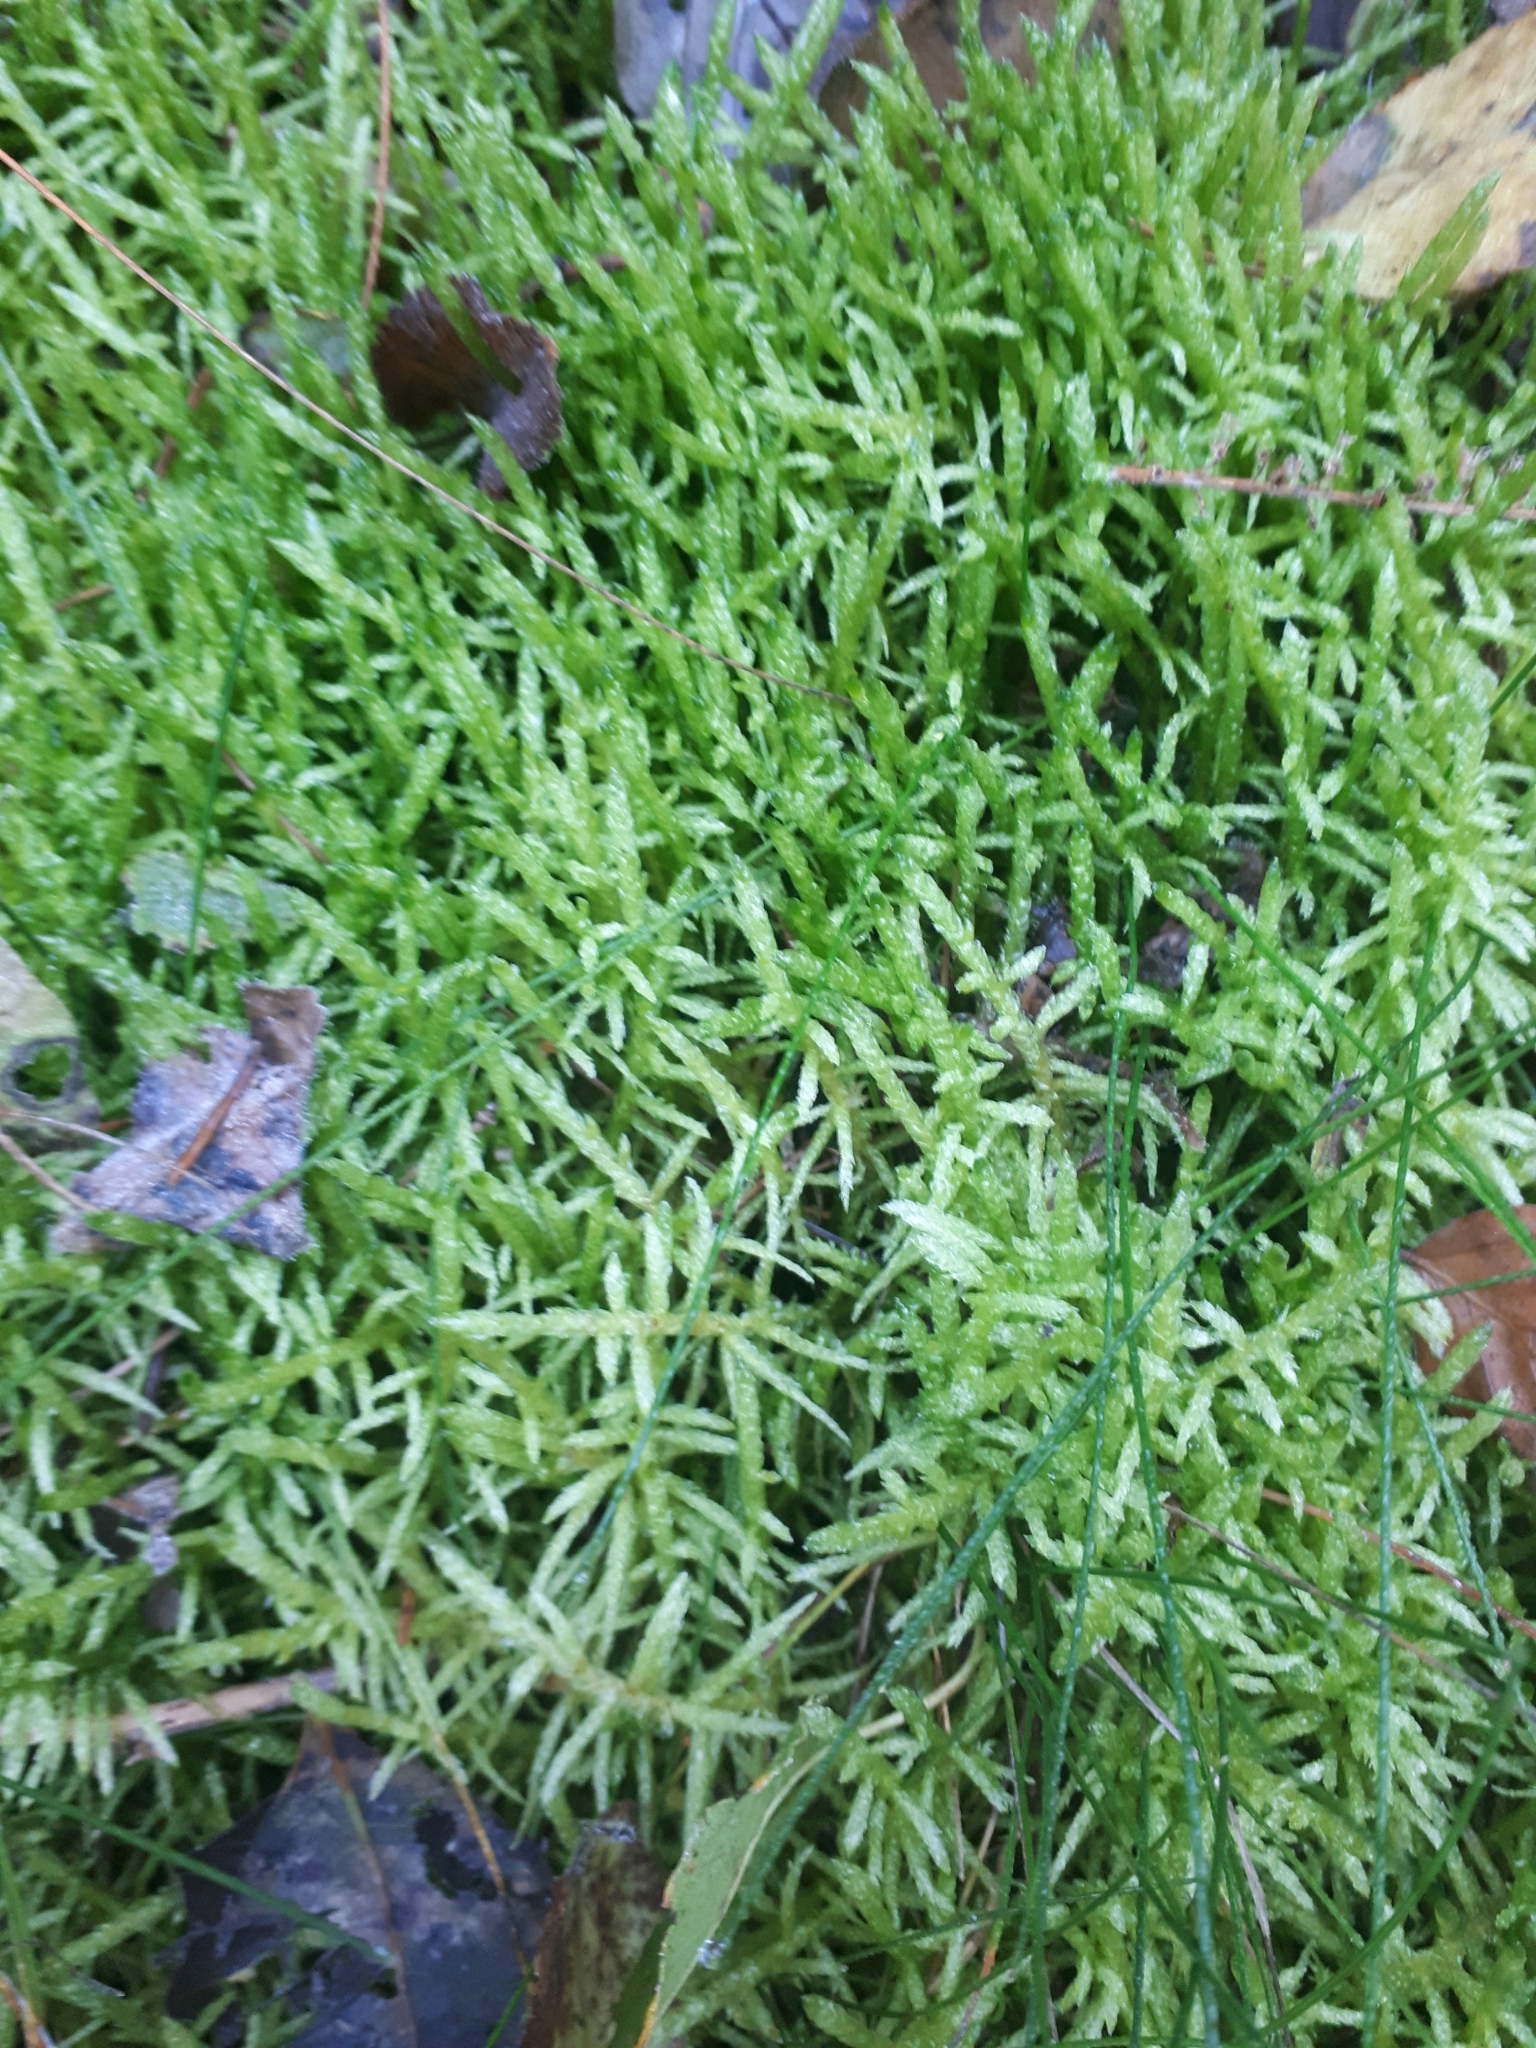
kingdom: Plantae
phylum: Bryophyta
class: Bryopsida
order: Hypnales
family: Brachytheciaceae
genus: Pseudoscleropodium
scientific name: Pseudoscleropodium purum
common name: Neat feather-moss
